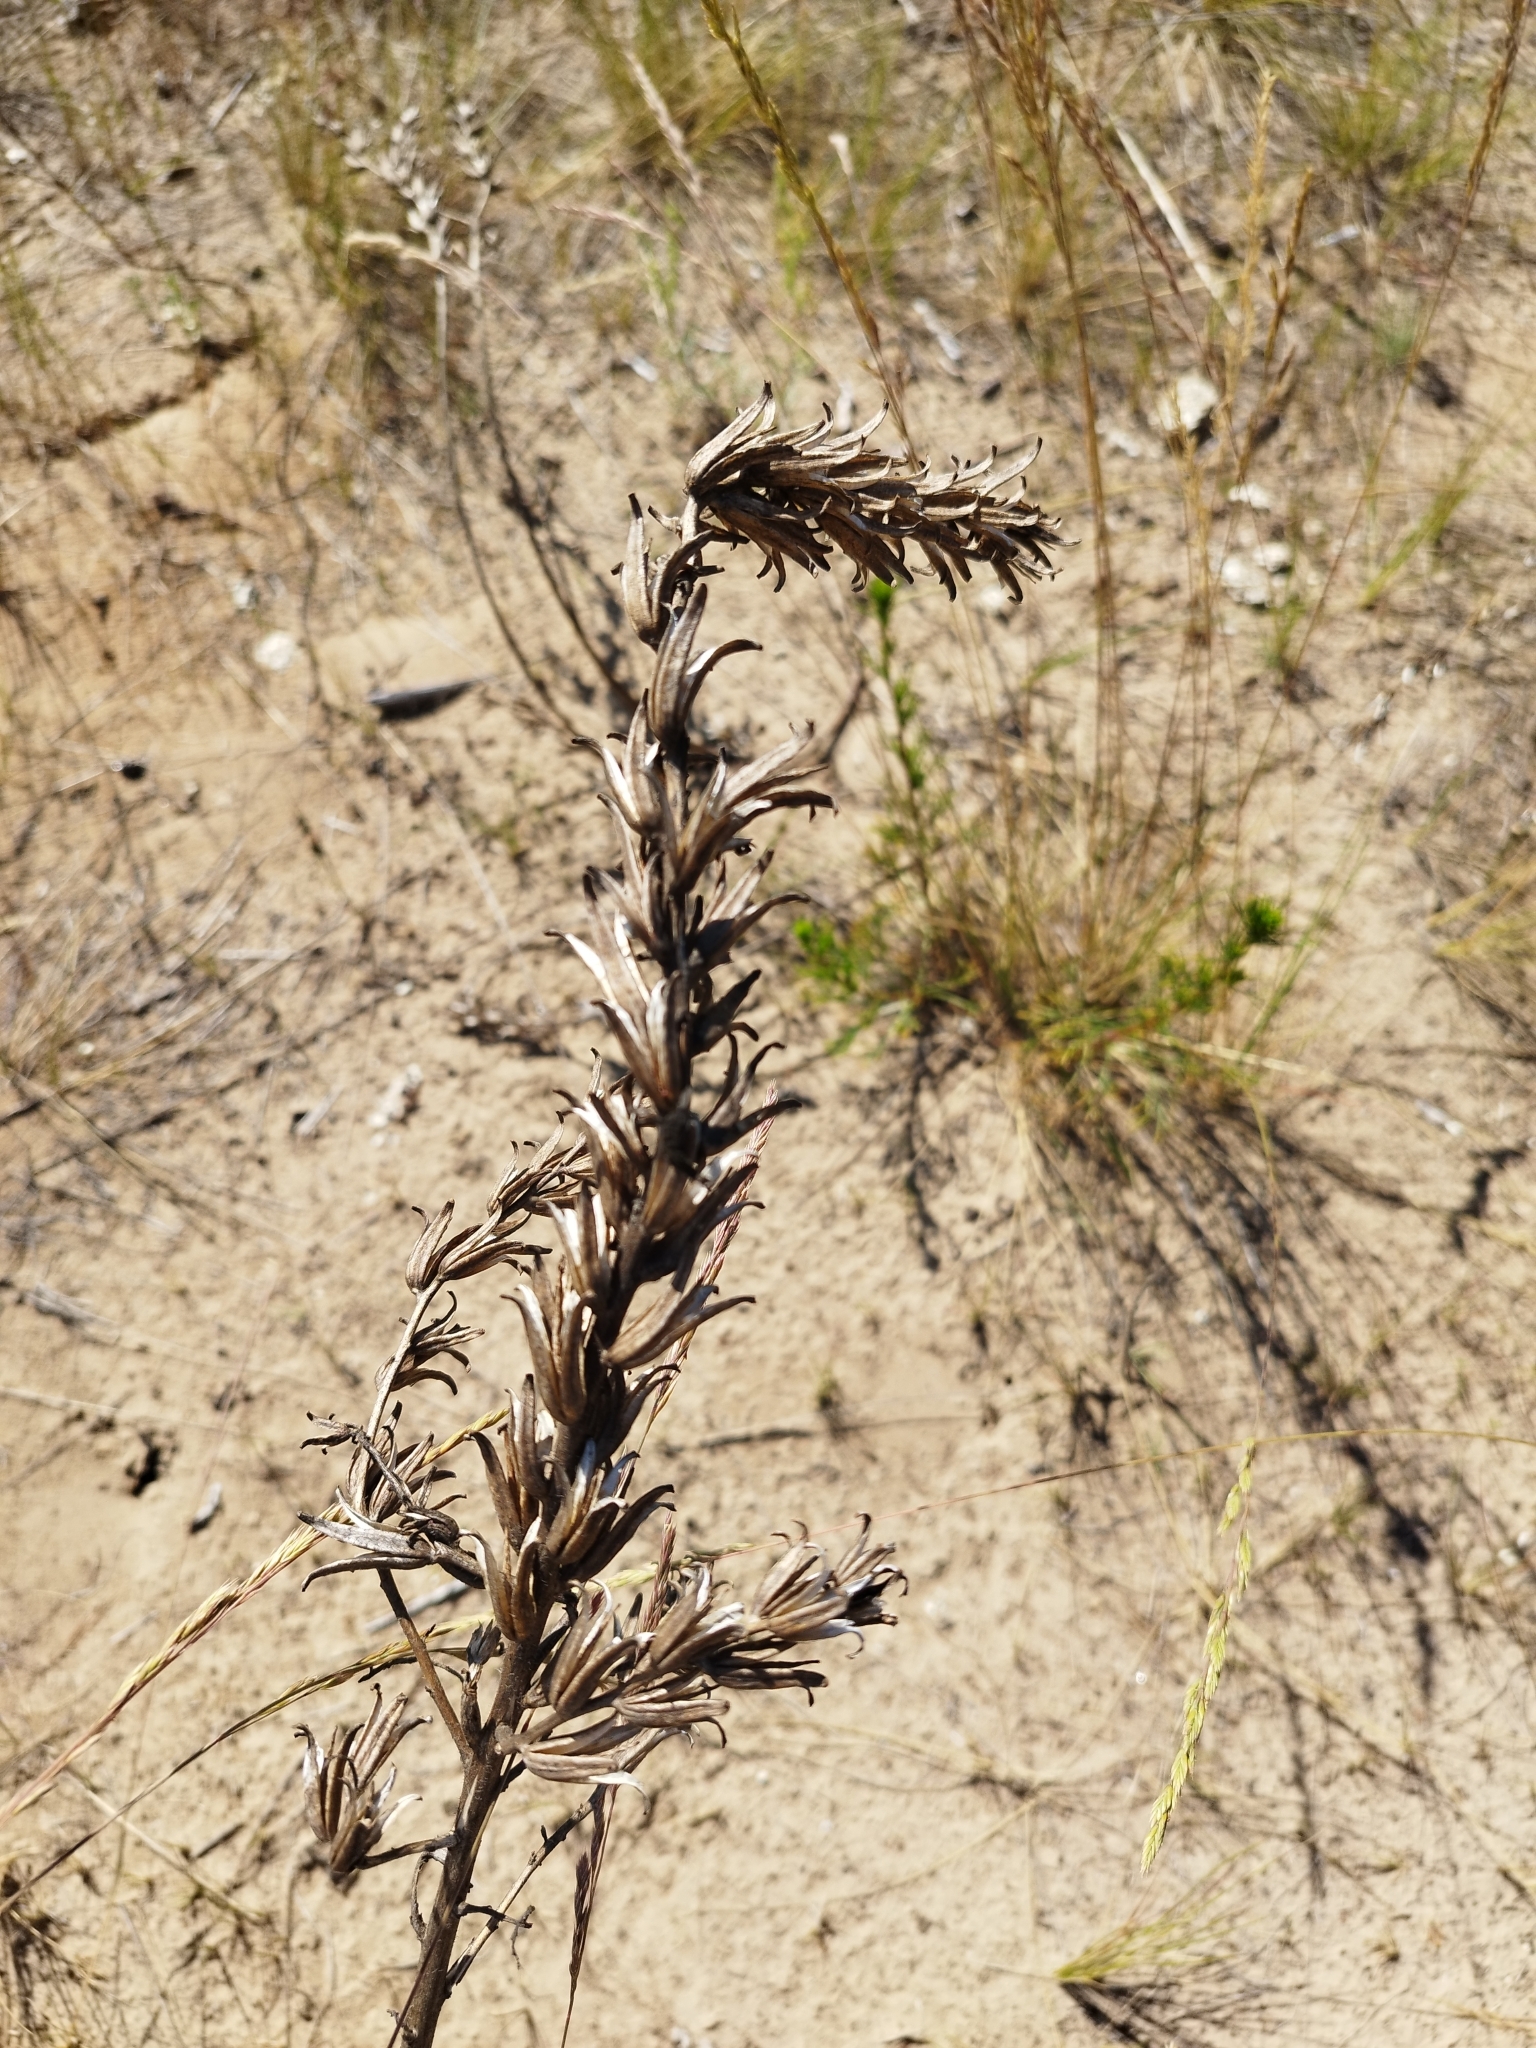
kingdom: Plantae
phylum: Tracheophyta
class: Magnoliopsida
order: Myrtales
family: Onagraceae
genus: Oenothera
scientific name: Oenothera
